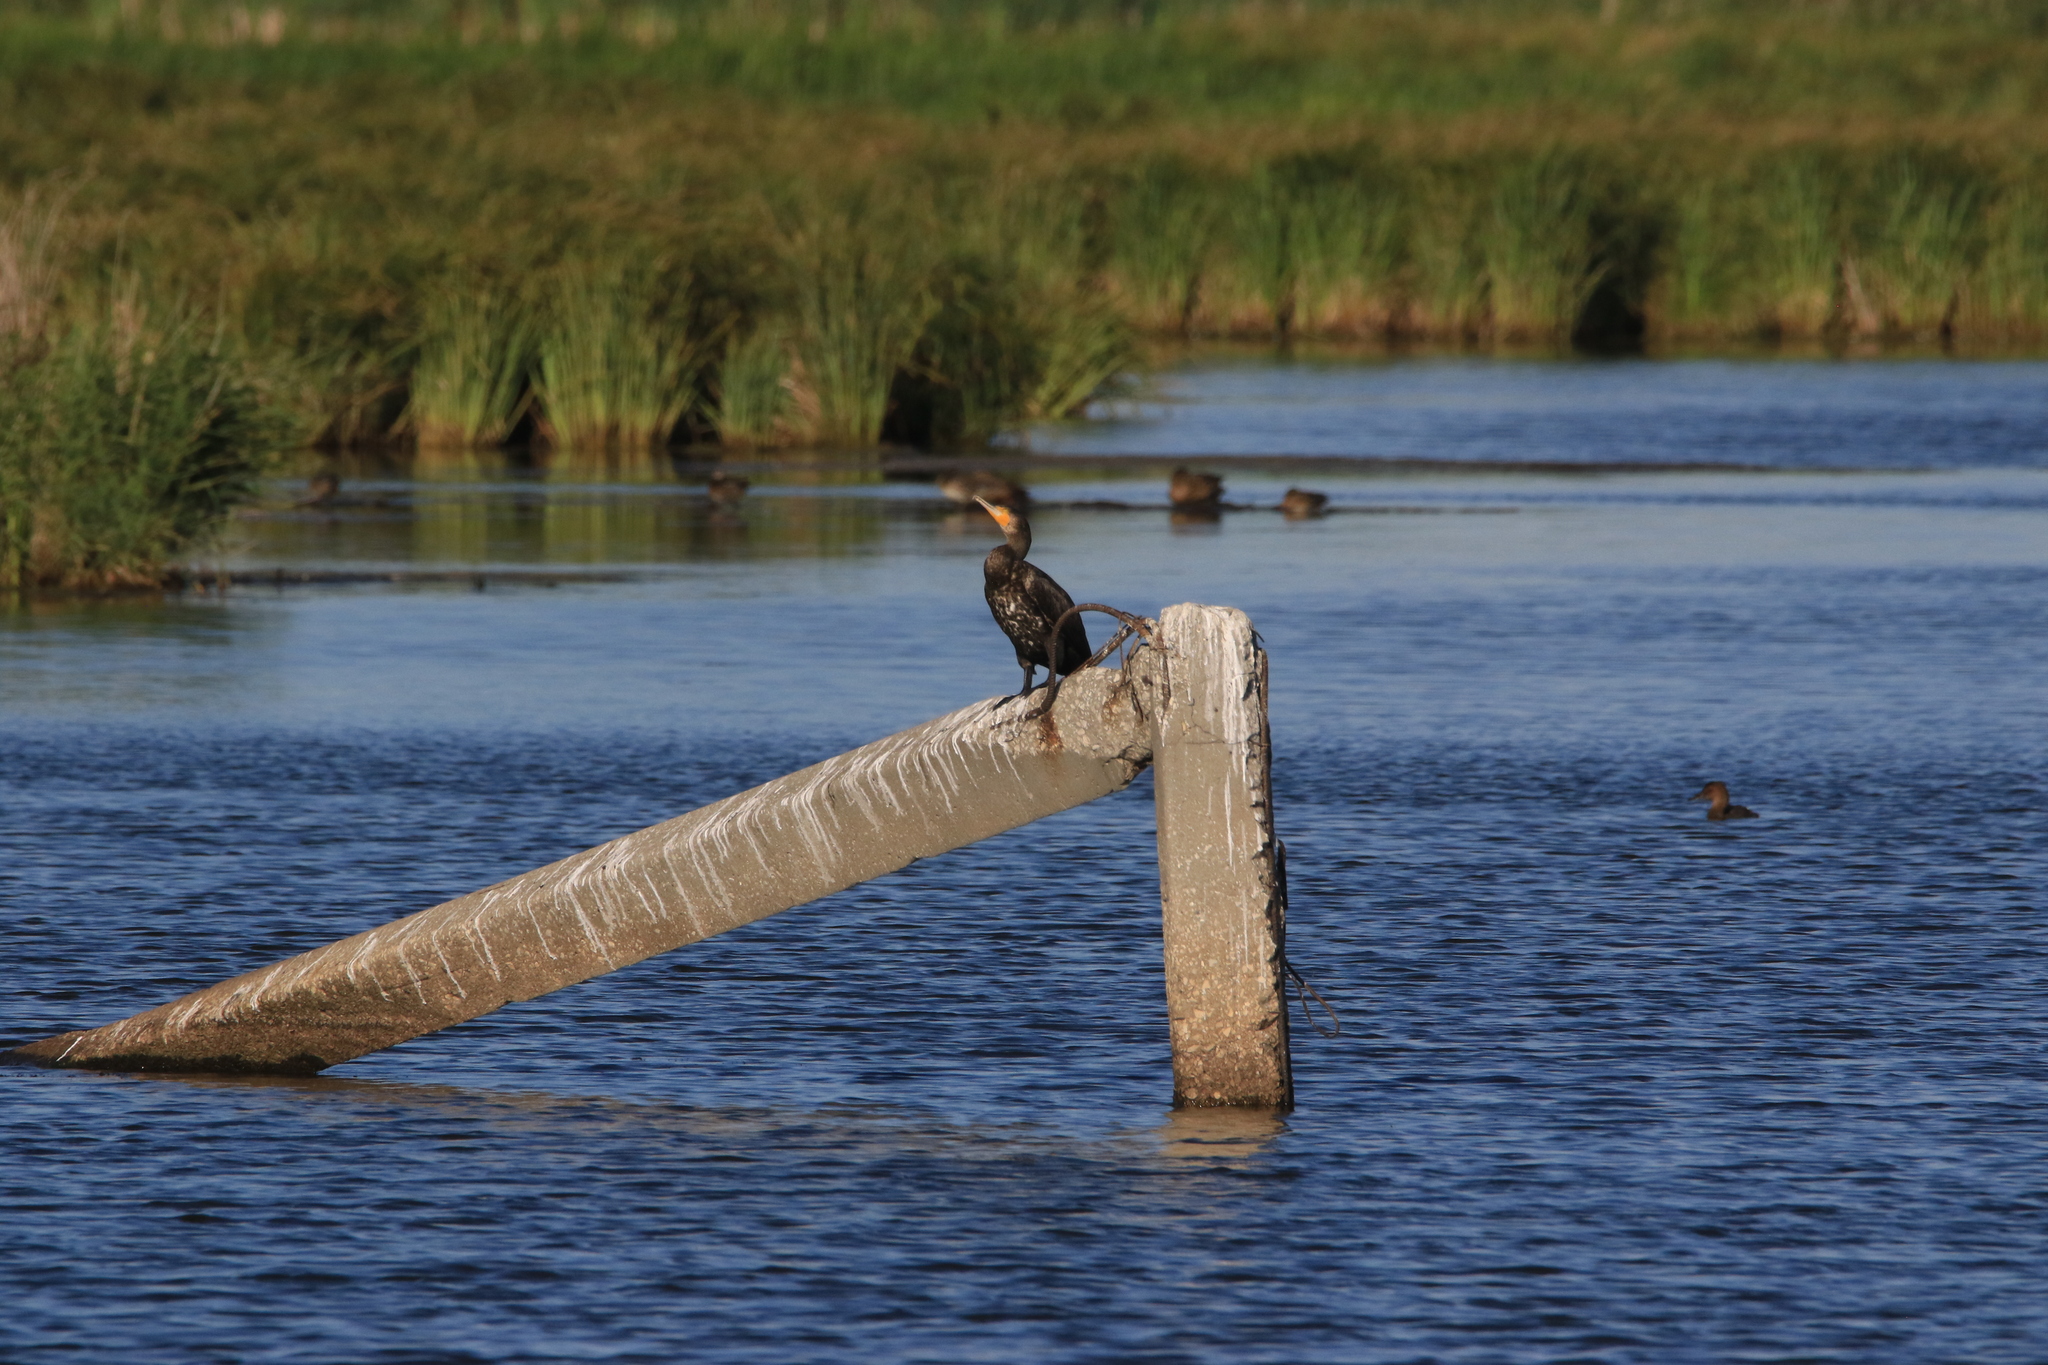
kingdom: Animalia
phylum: Chordata
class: Aves
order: Suliformes
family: Phalacrocoracidae
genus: Phalacrocorax
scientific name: Phalacrocorax carbo
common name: Great cormorant
